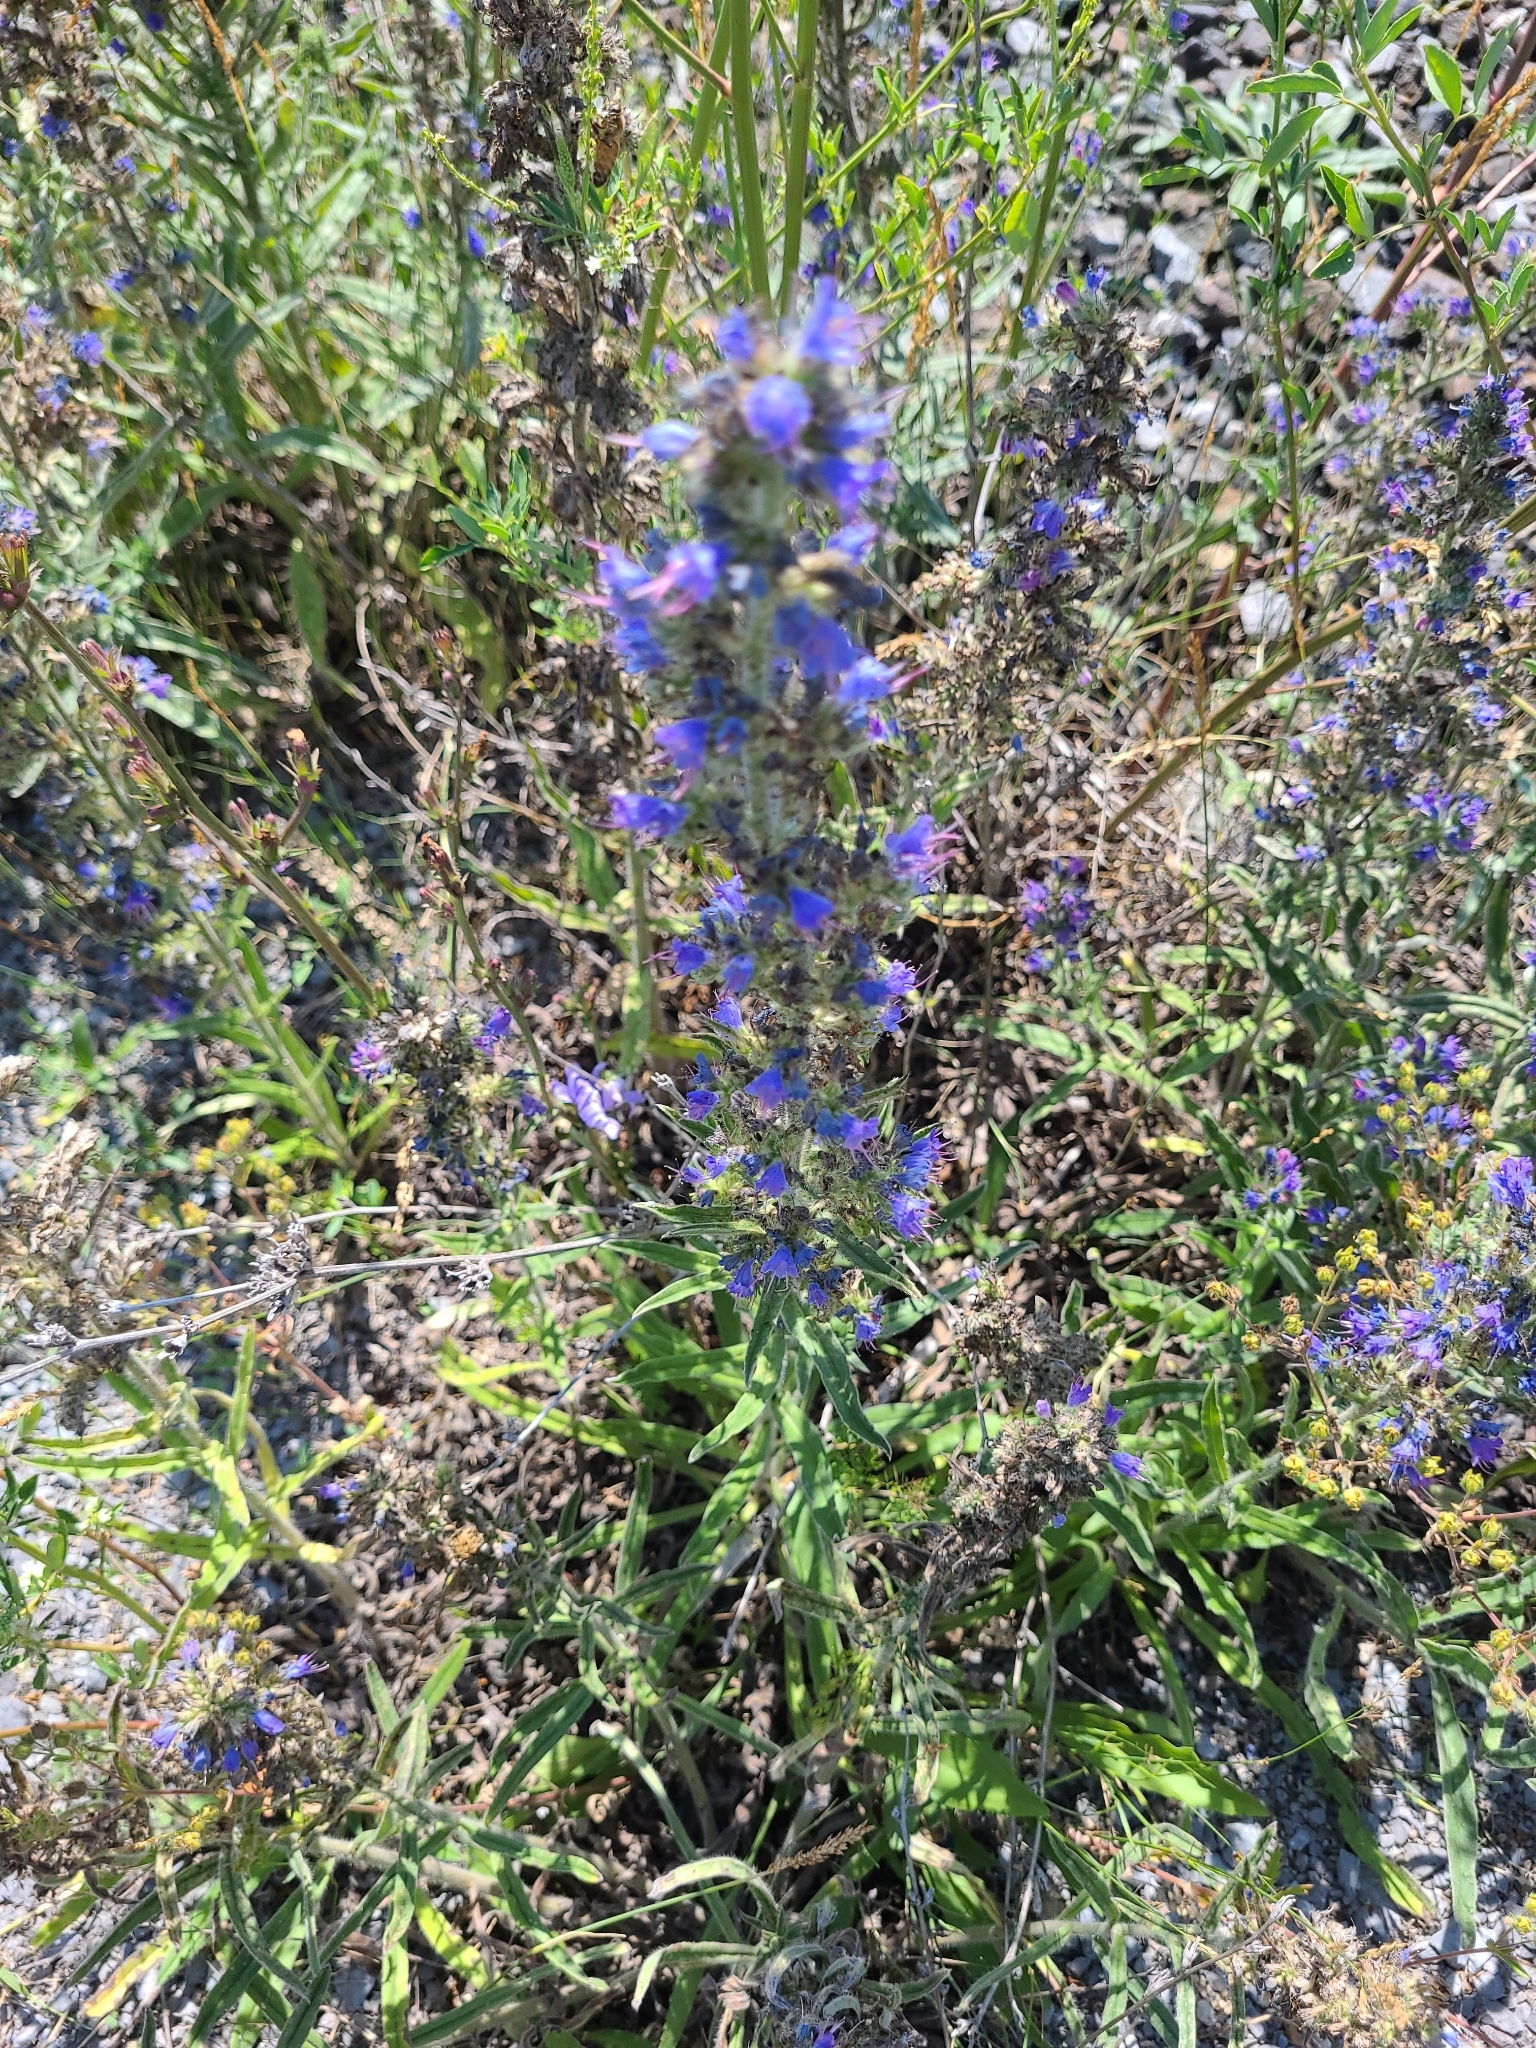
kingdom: Plantae
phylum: Tracheophyta
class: Magnoliopsida
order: Boraginales
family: Boraginaceae
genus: Echium
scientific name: Echium vulgare
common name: Common viper's bugloss
